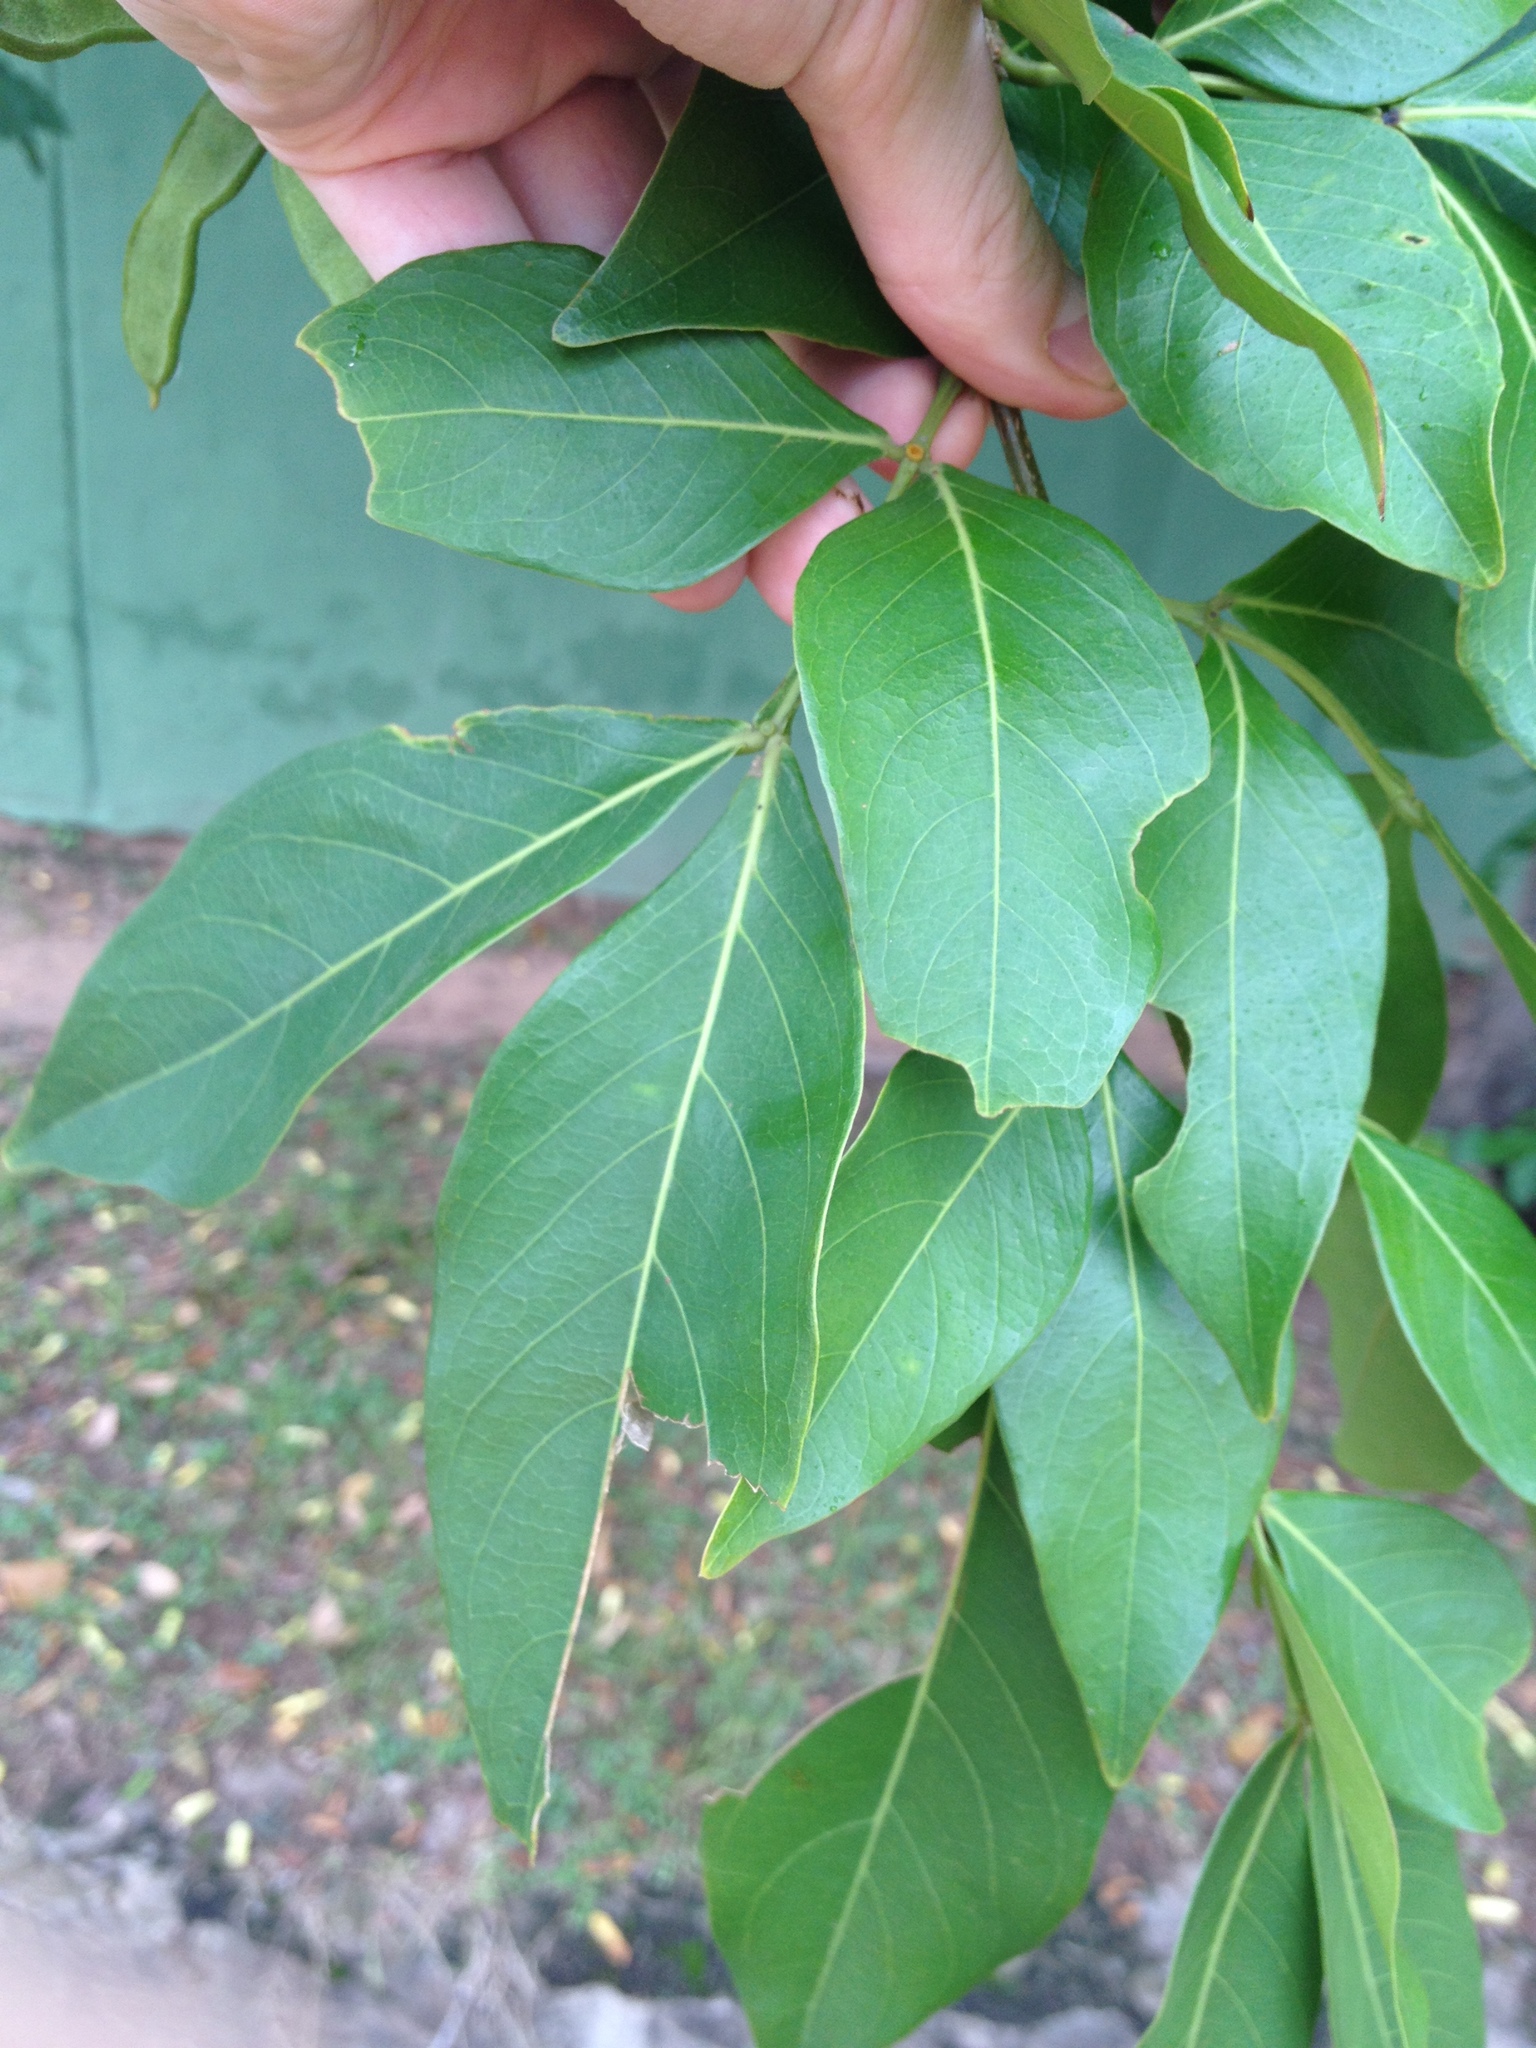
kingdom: Plantae
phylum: Tracheophyta
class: Magnoliopsida
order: Fabales
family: Fabaceae
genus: Inga
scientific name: Inga marginata
